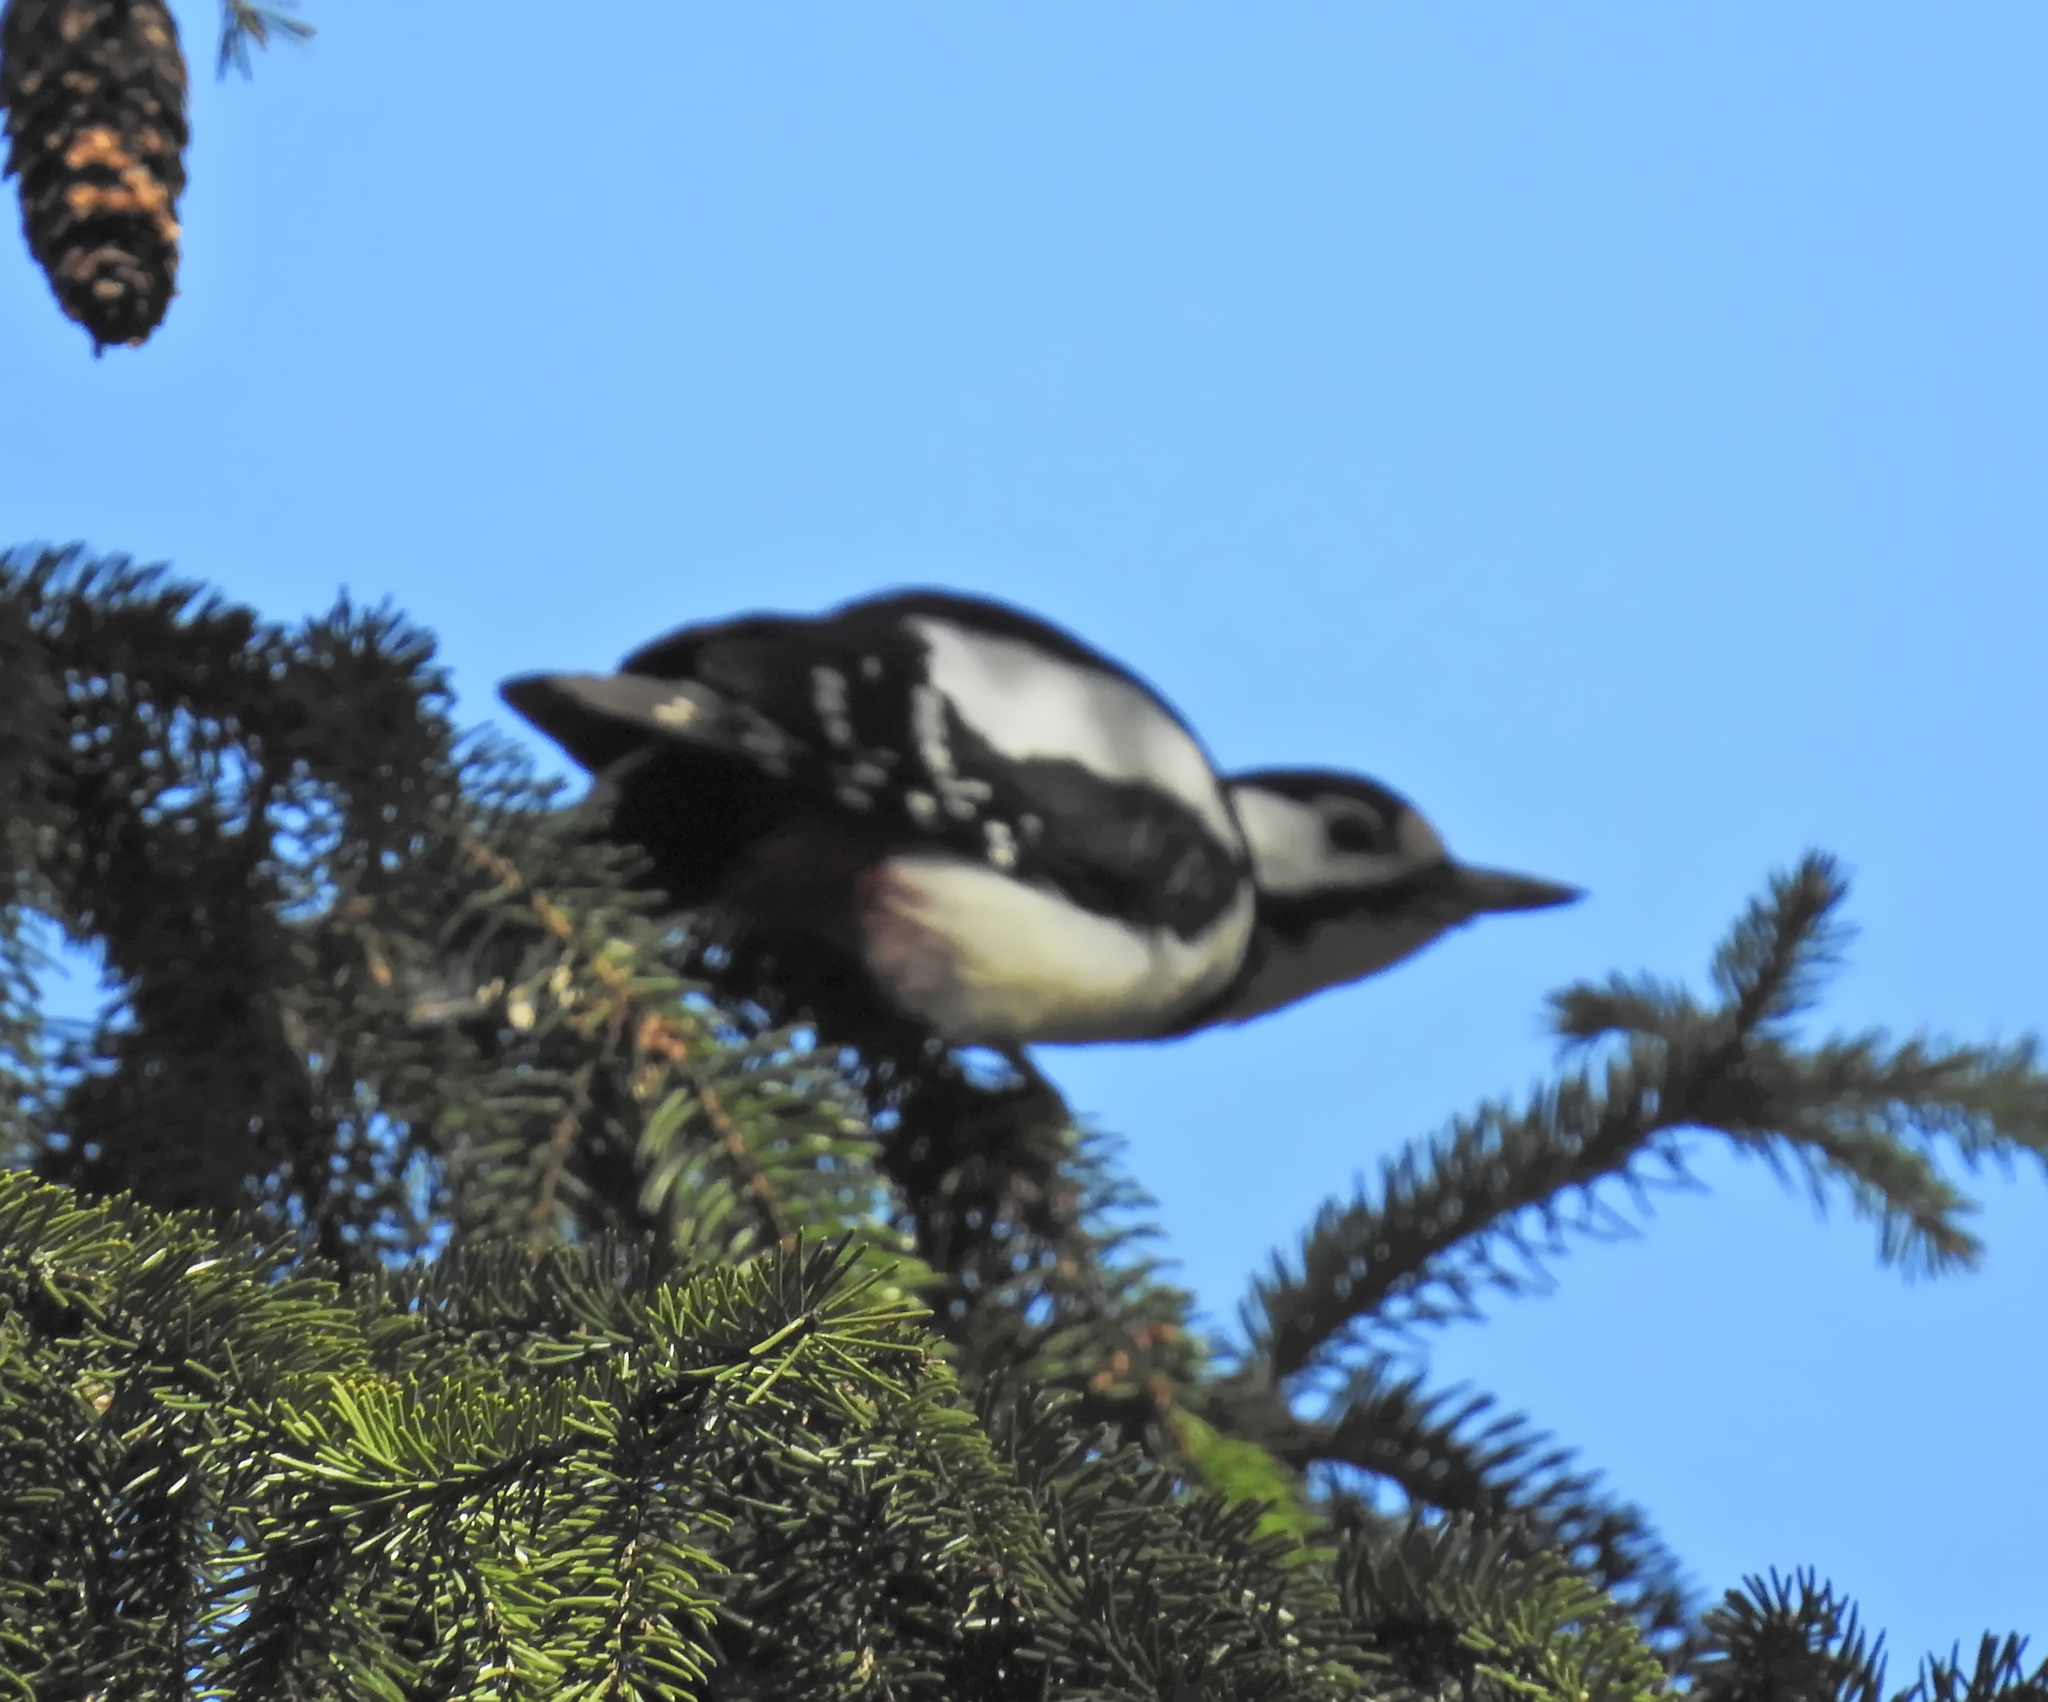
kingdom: Animalia
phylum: Chordata
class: Aves
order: Piciformes
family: Picidae
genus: Dendrocopos
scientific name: Dendrocopos major
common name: Great spotted woodpecker
